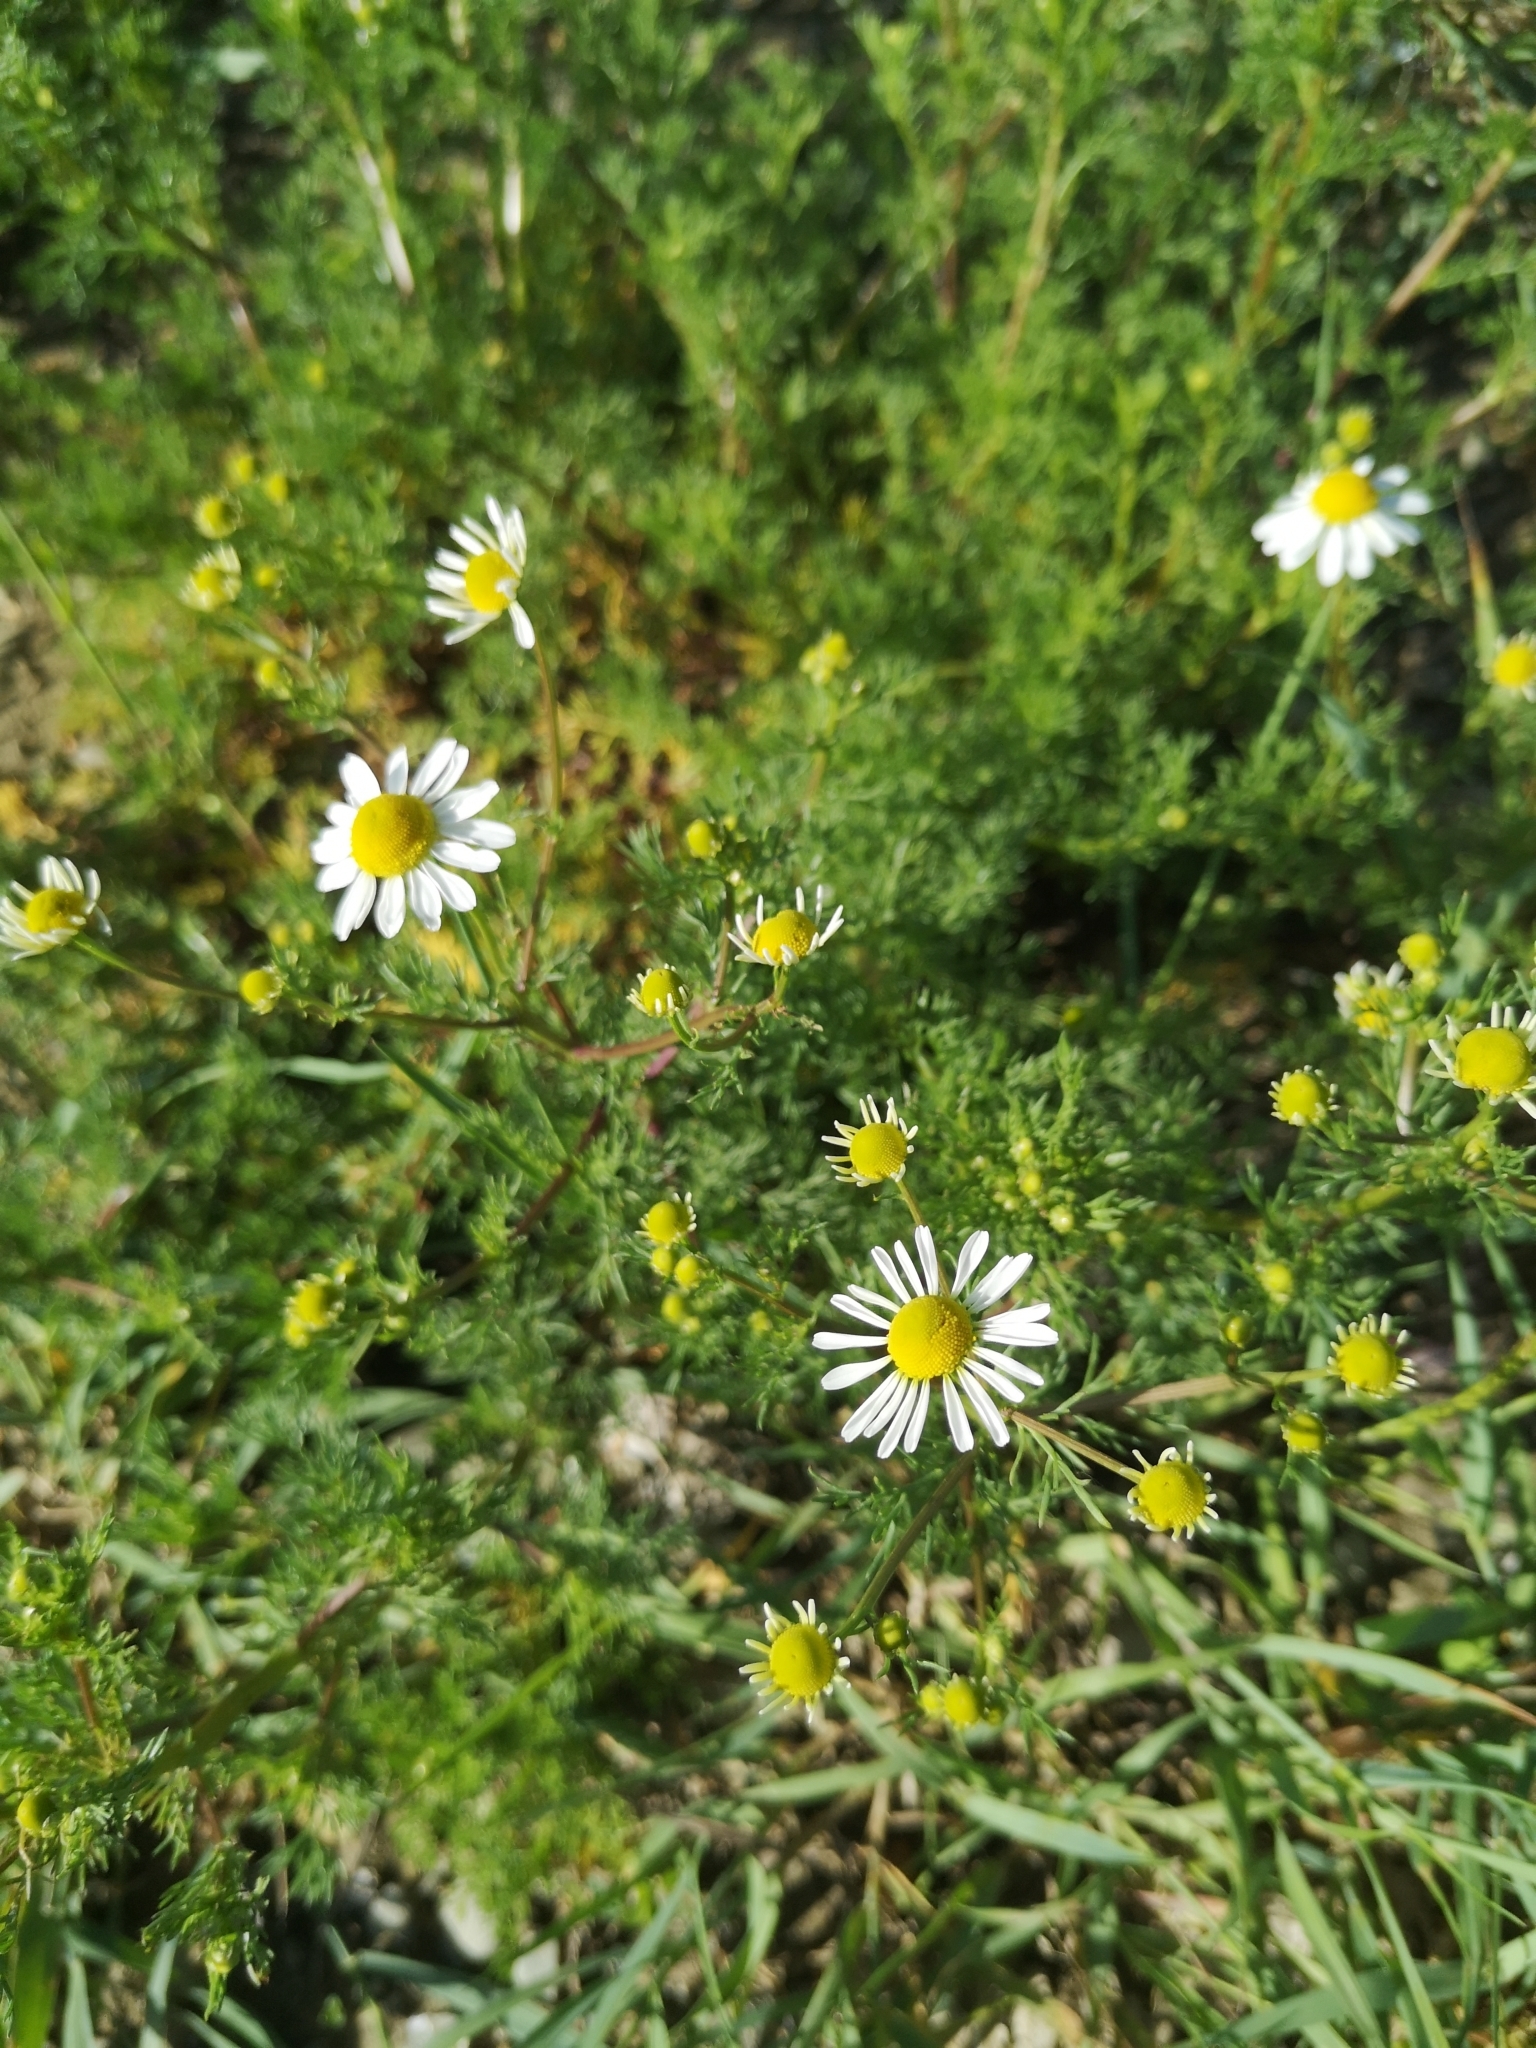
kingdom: Plantae
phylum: Tracheophyta
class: Magnoliopsida
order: Asterales
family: Asteraceae
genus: Matricaria
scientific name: Matricaria chamomilla
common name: Scented mayweed
